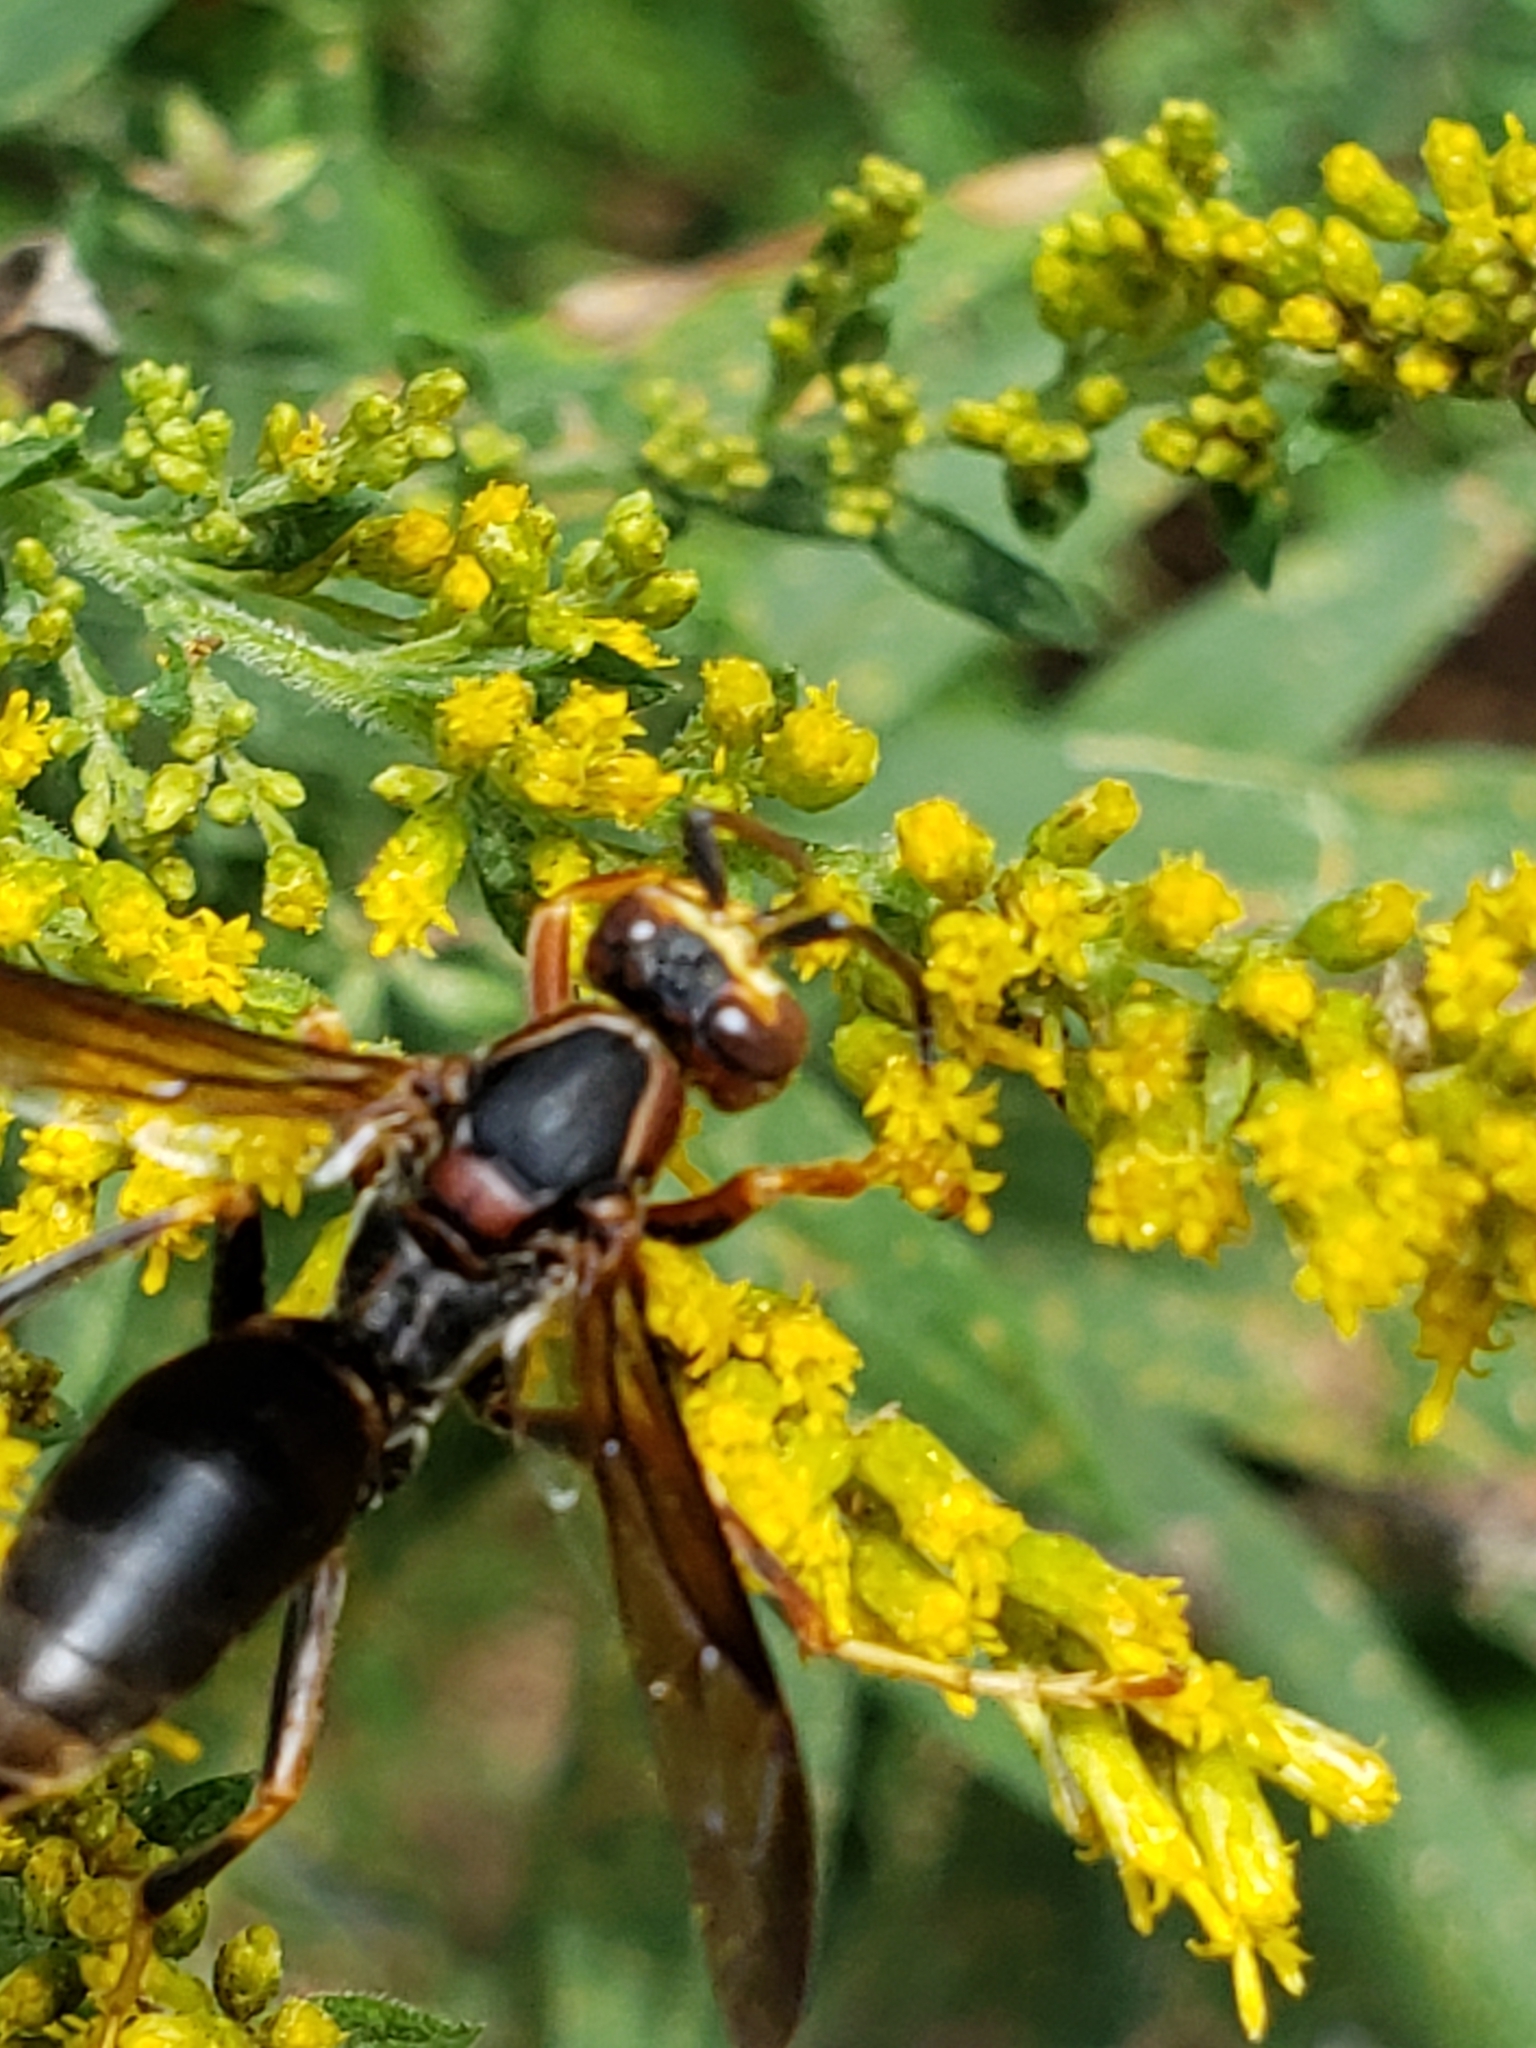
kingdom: Animalia
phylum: Arthropoda
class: Insecta
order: Hymenoptera
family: Eumenidae
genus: Polistes
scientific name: Polistes fuscatus
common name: Dark paper wasp
